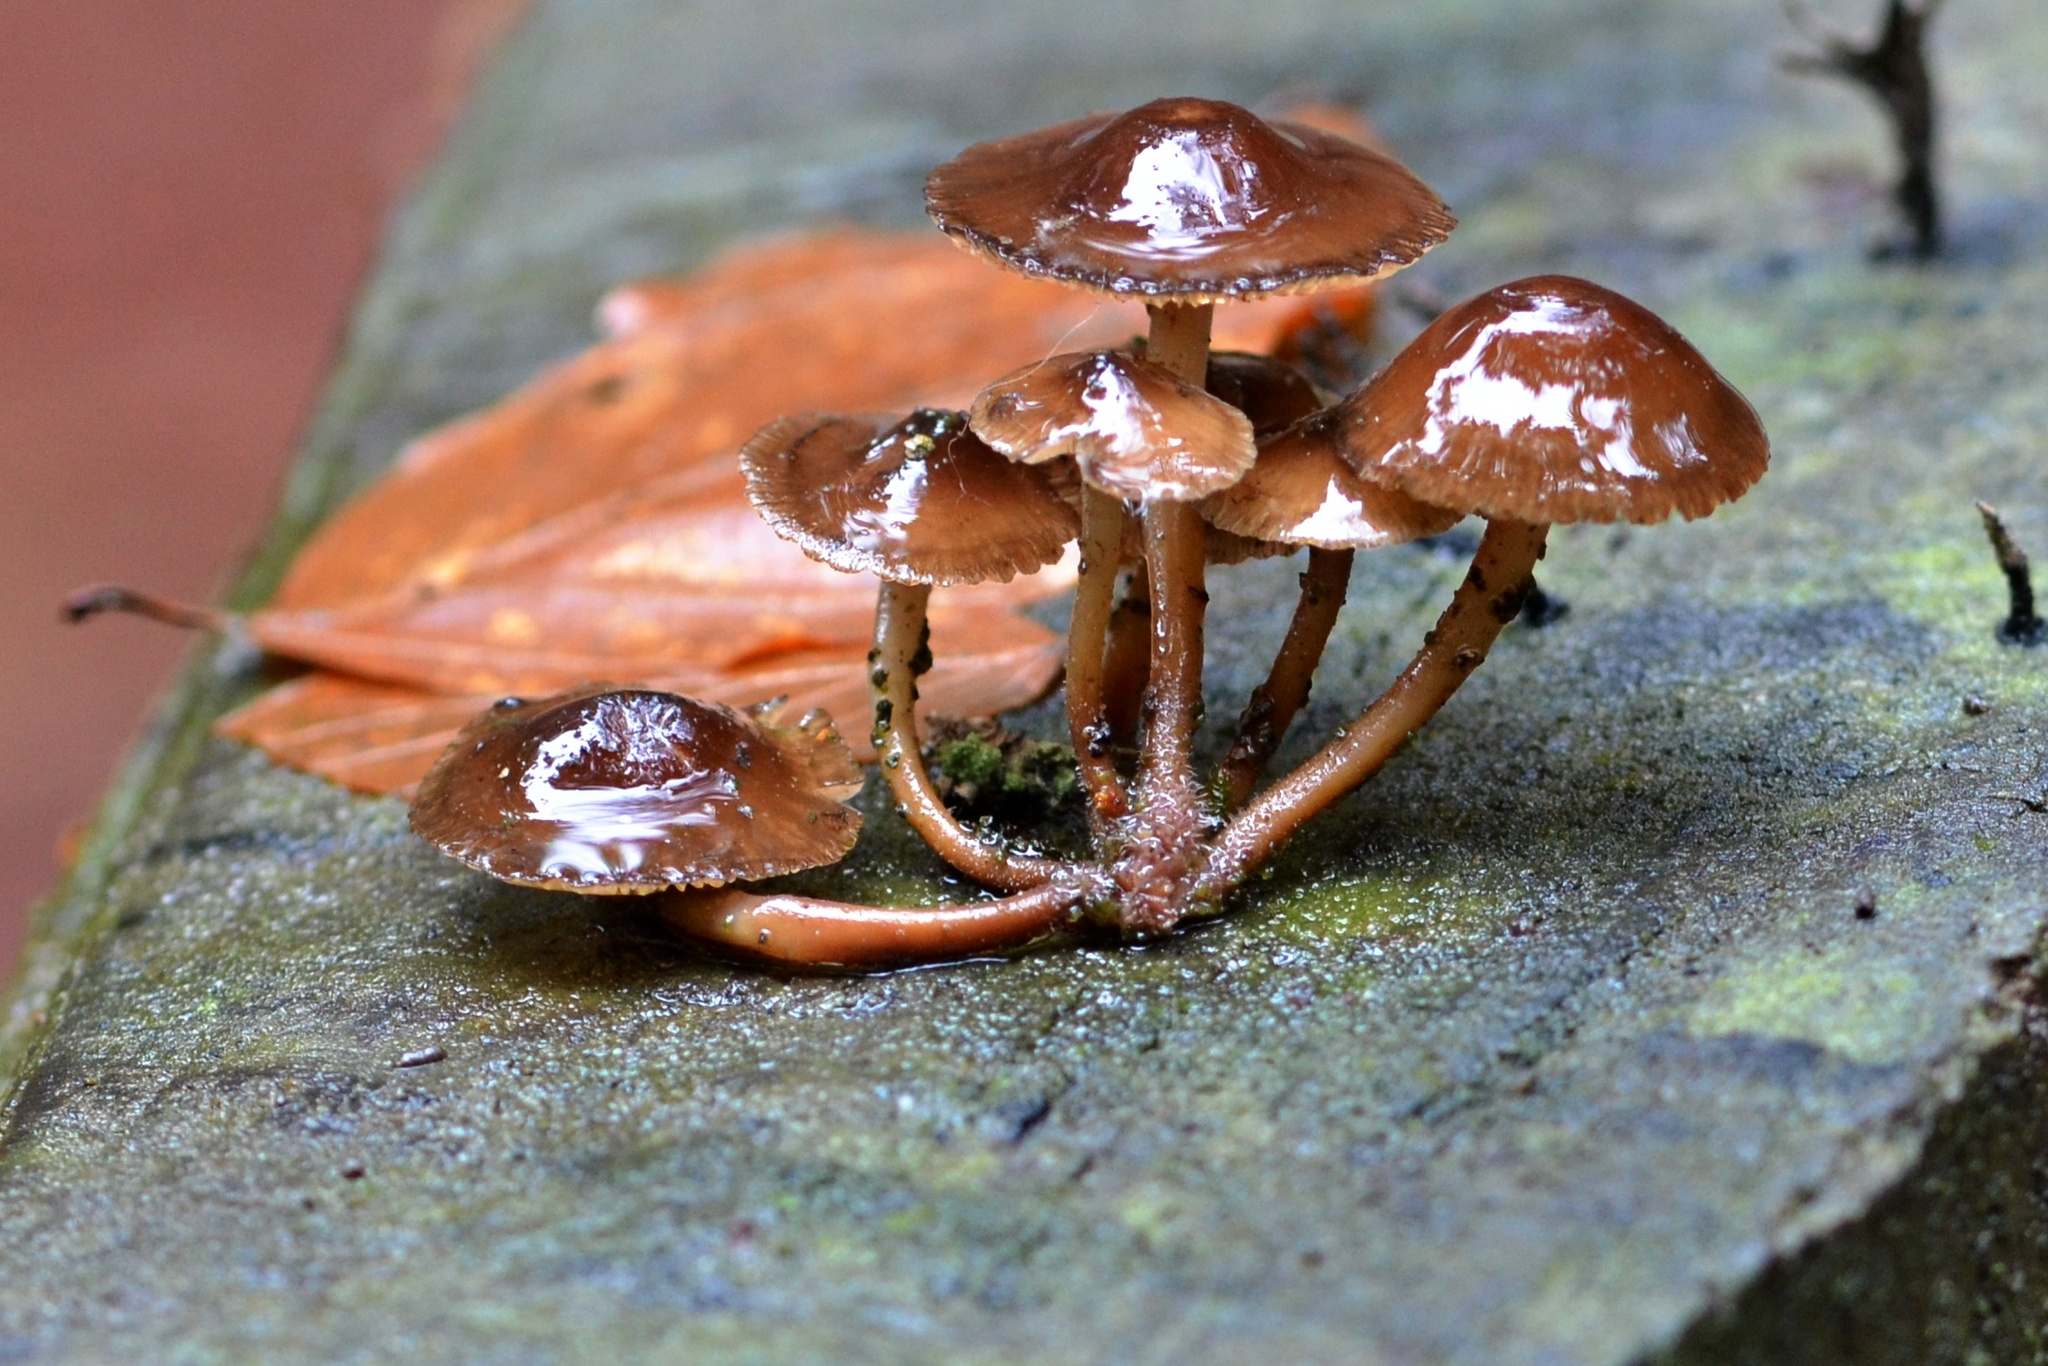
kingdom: Fungi
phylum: Basidiomycota
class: Agaricomycetes
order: Agaricales
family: Mycenaceae
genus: Mycena
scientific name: Mycena inclinata
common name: Clustered bonnet
